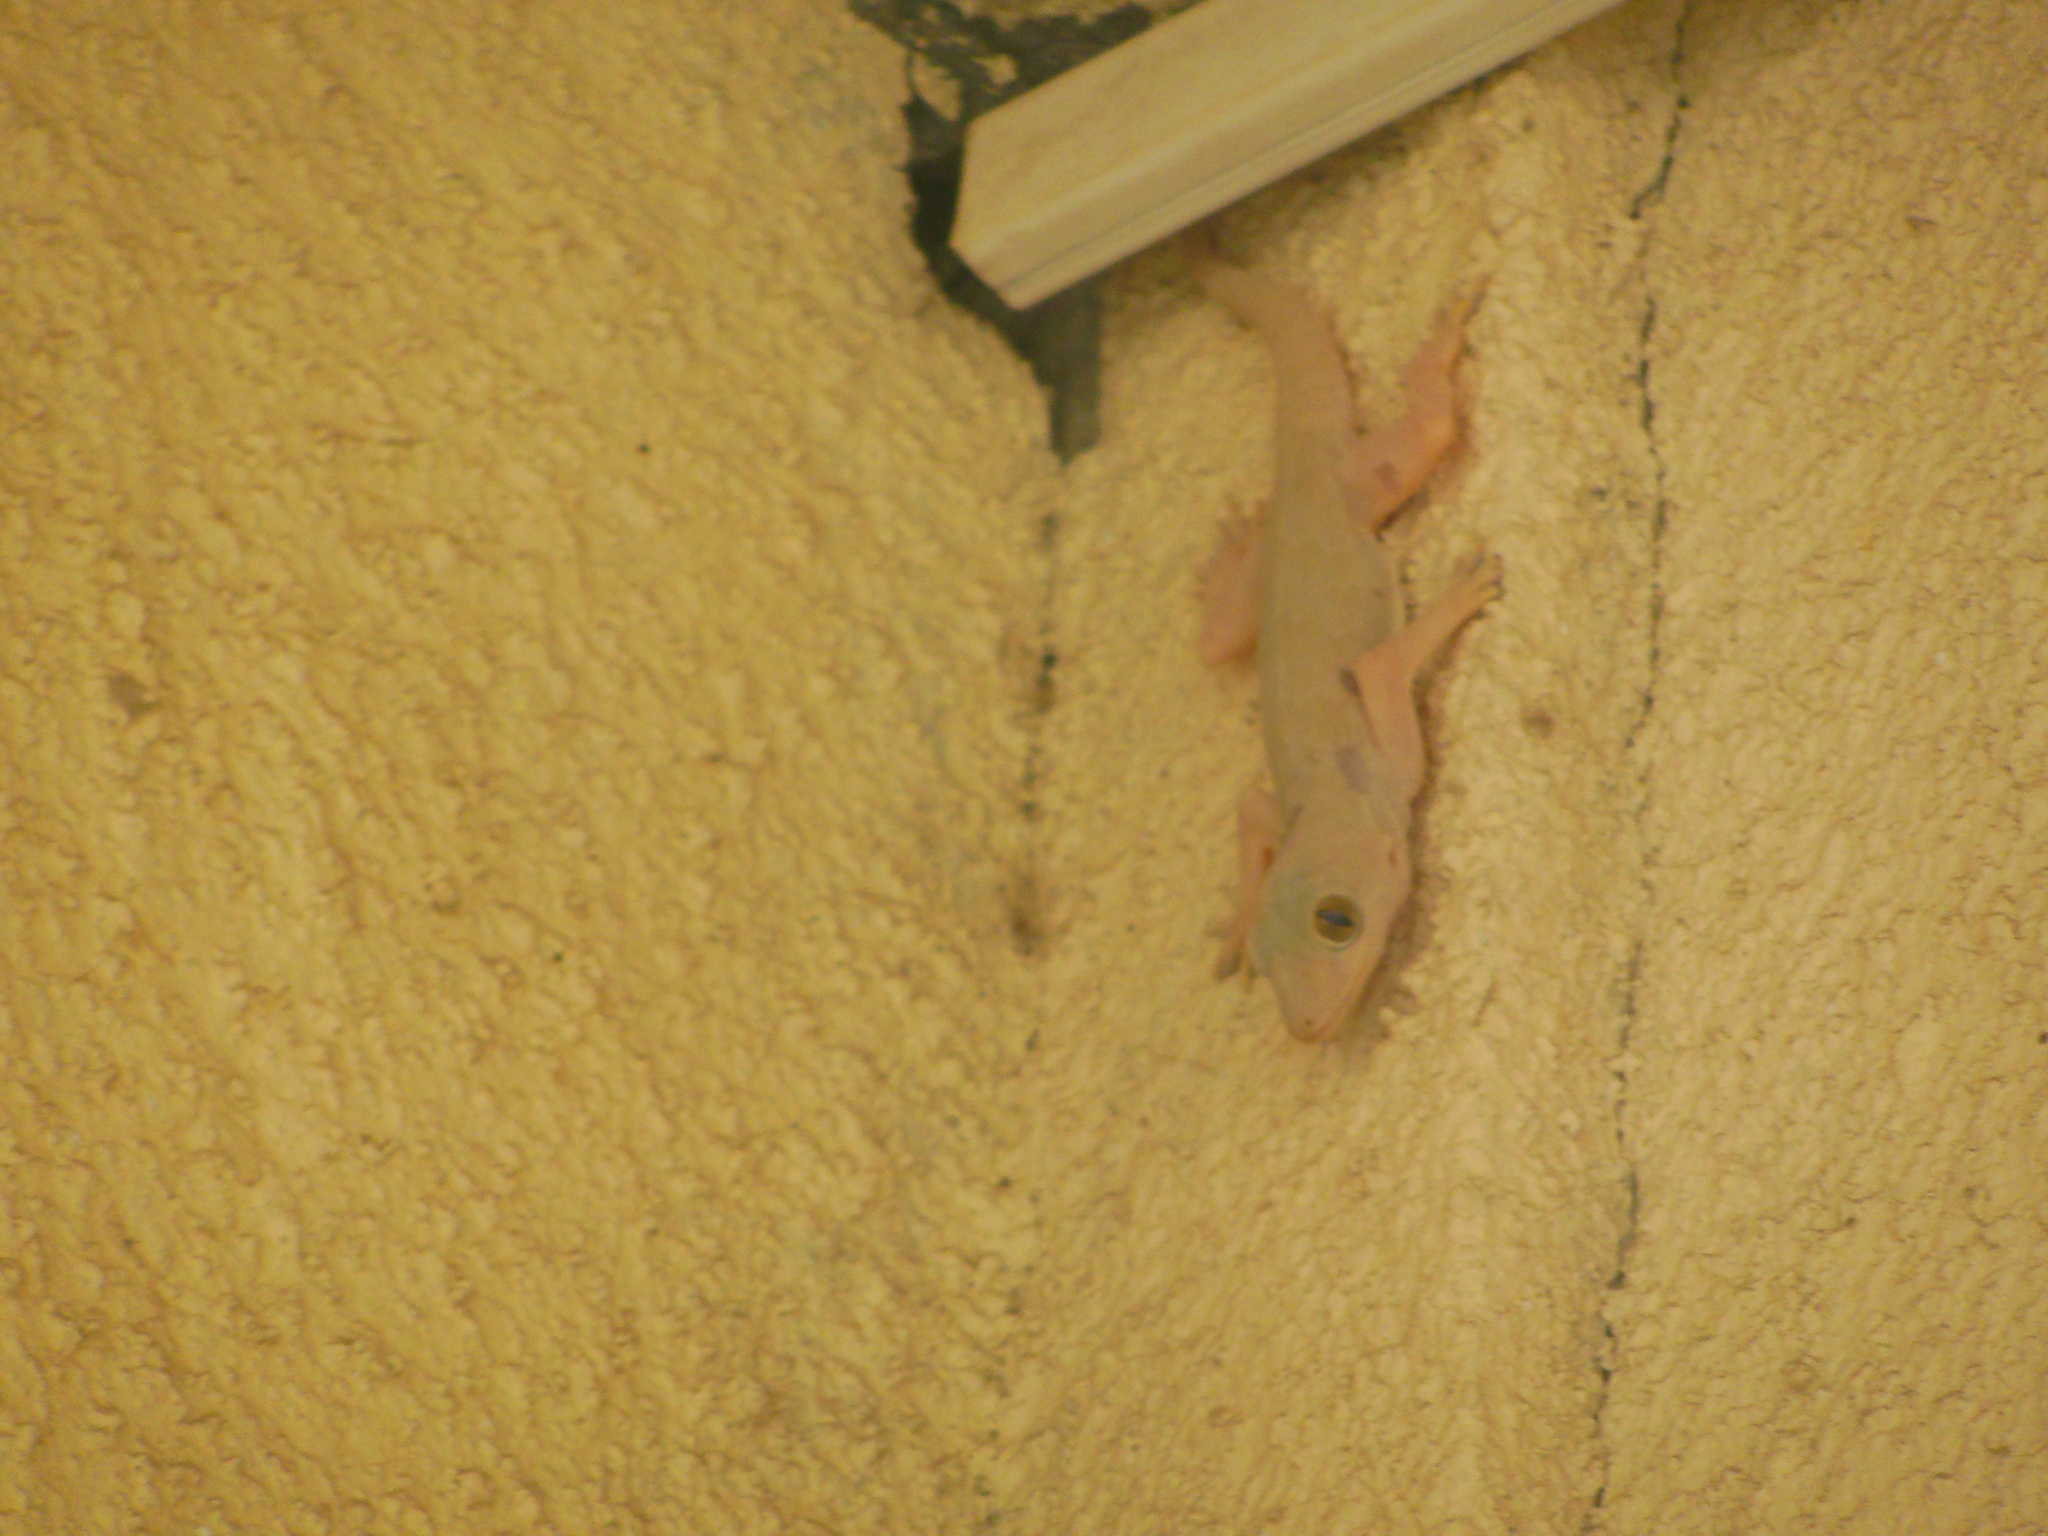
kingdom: Animalia
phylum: Chordata
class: Squamata
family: Gekkonidae
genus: Hemidactylus
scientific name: Hemidactylus flaviviridis
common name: Northern house gecko
